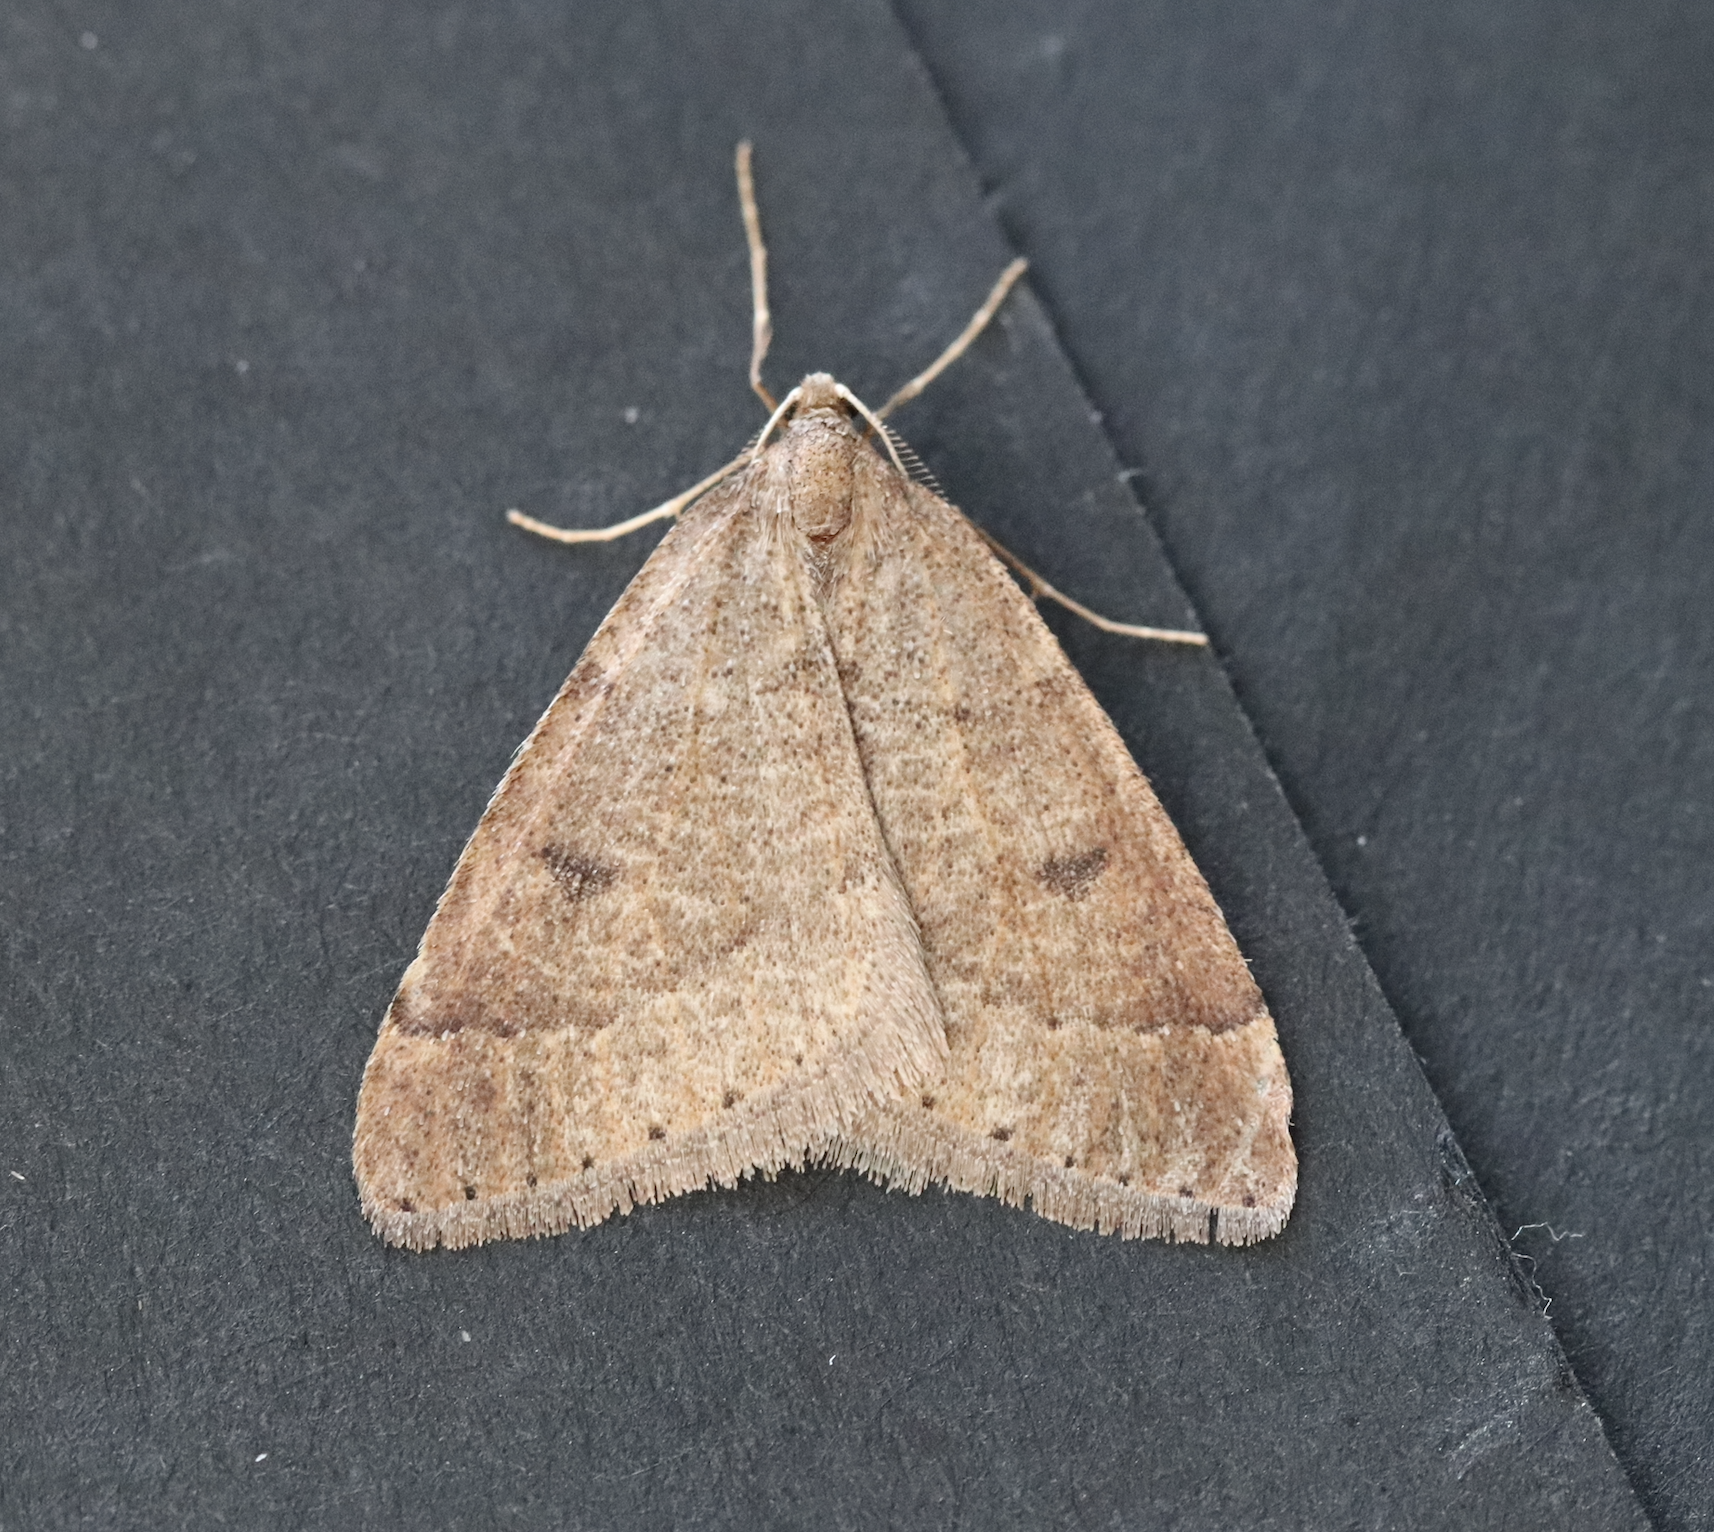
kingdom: Animalia
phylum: Arthropoda
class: Insecta
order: Lepidoptera
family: Geometridae
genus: Theria
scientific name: Theria primaria
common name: Early moth
